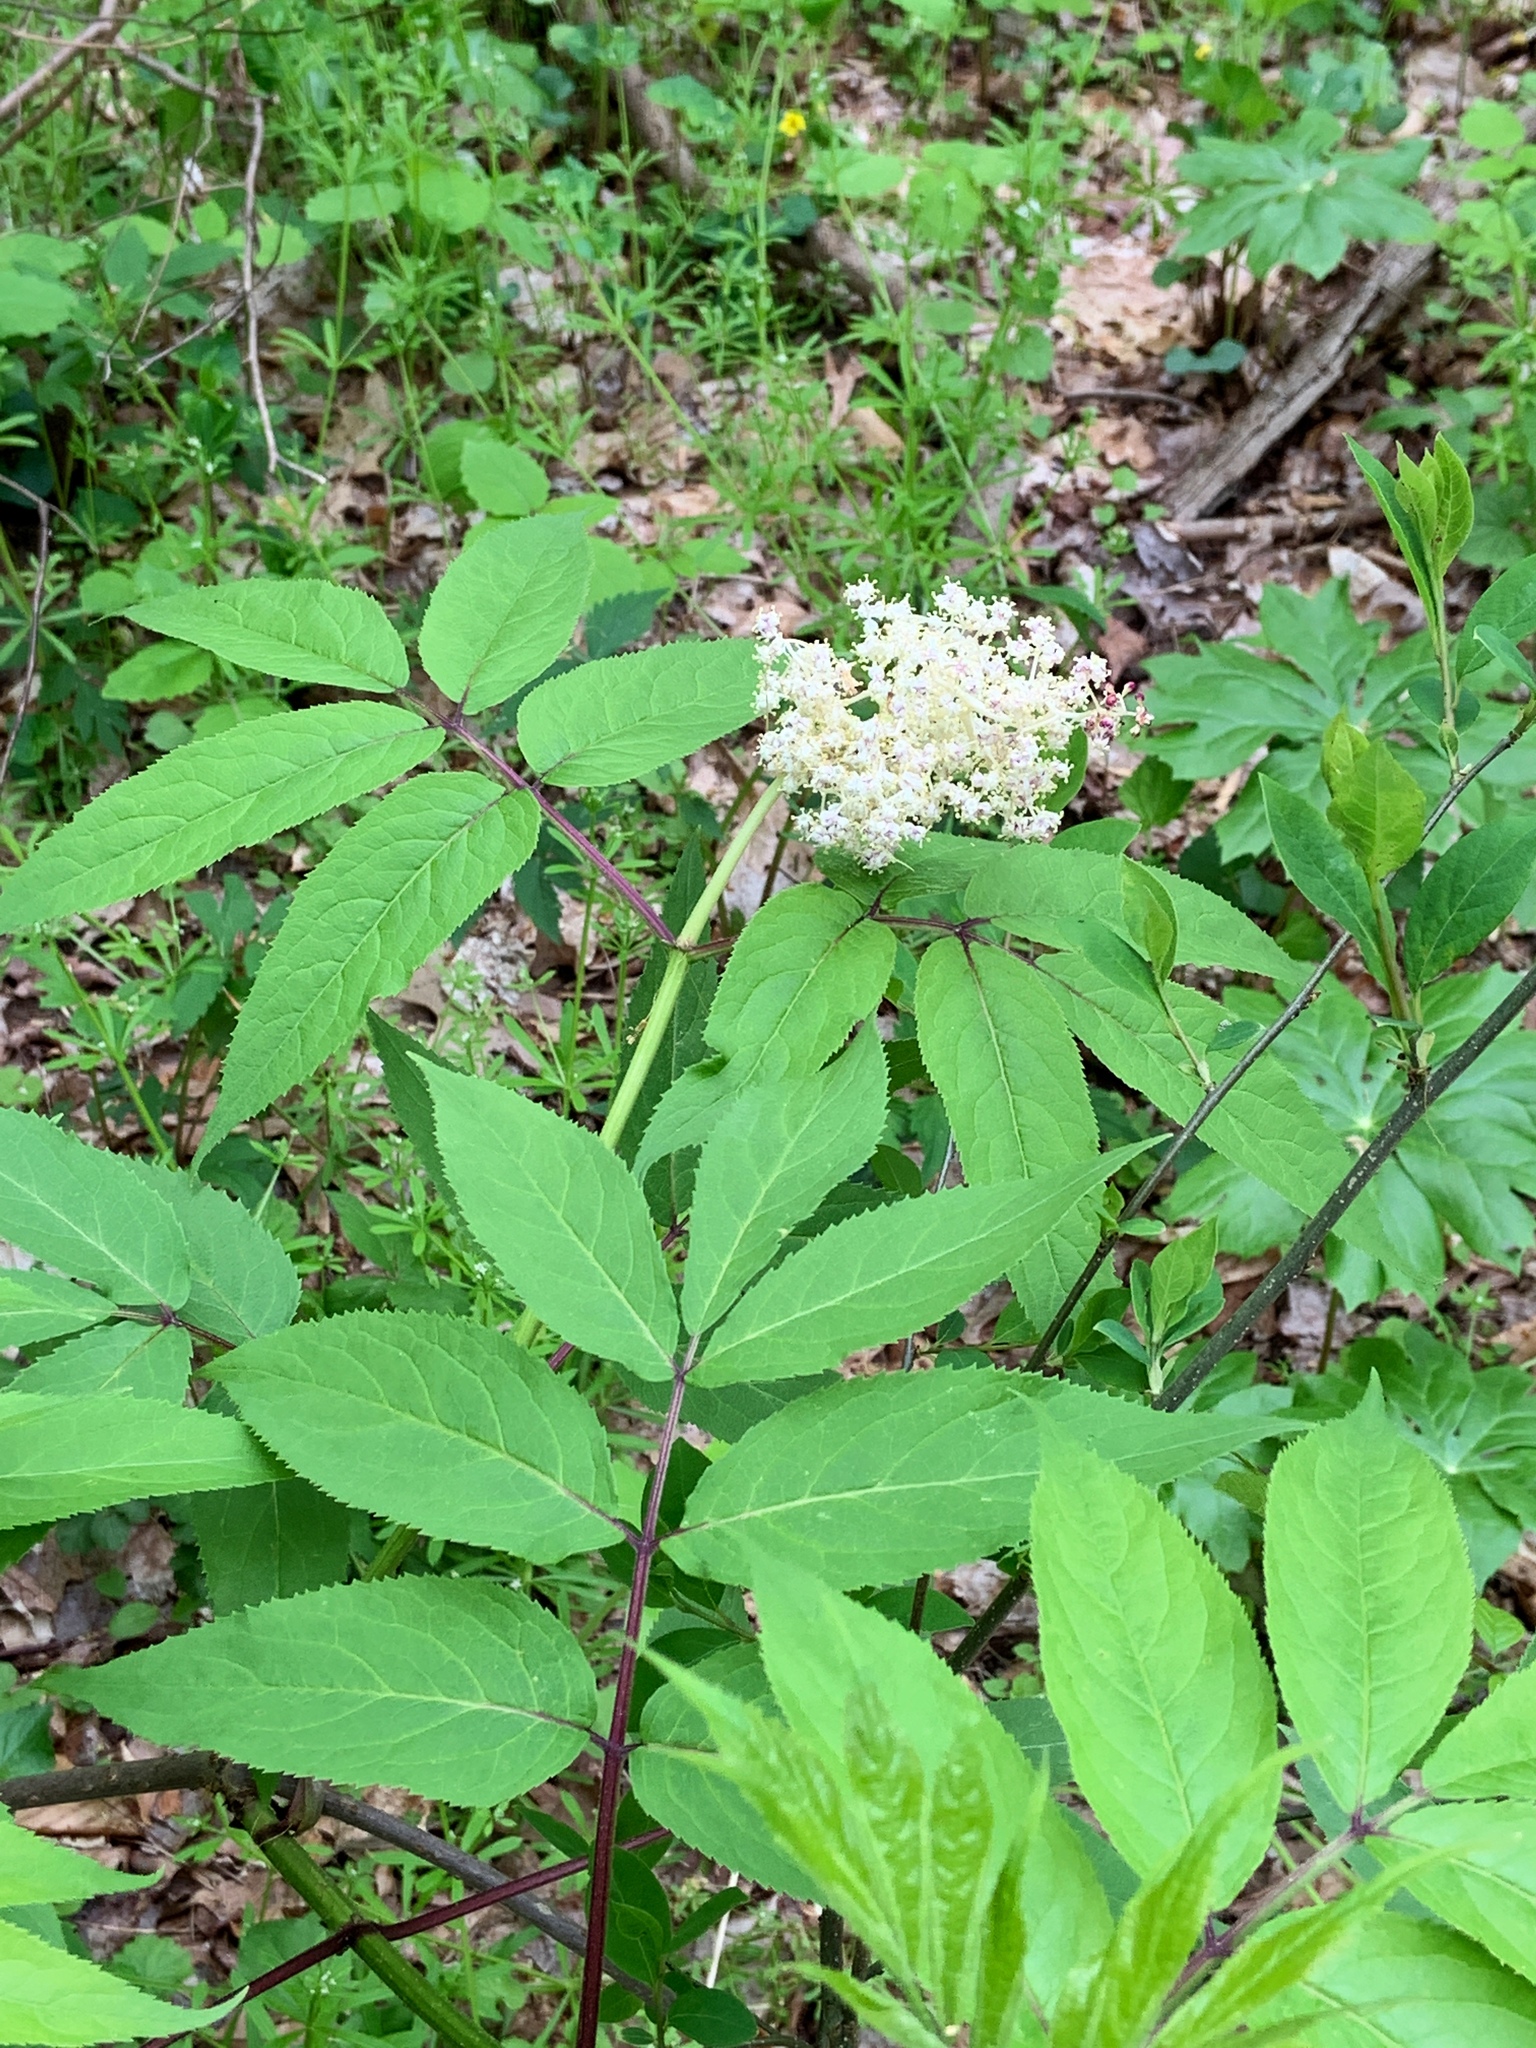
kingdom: Plantae
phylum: Tracheophyta
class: Magnoliopsida
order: Dipsacales
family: Viburnaceae
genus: Sambucus
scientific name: Sambucus racemosa
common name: Red-berried elder
